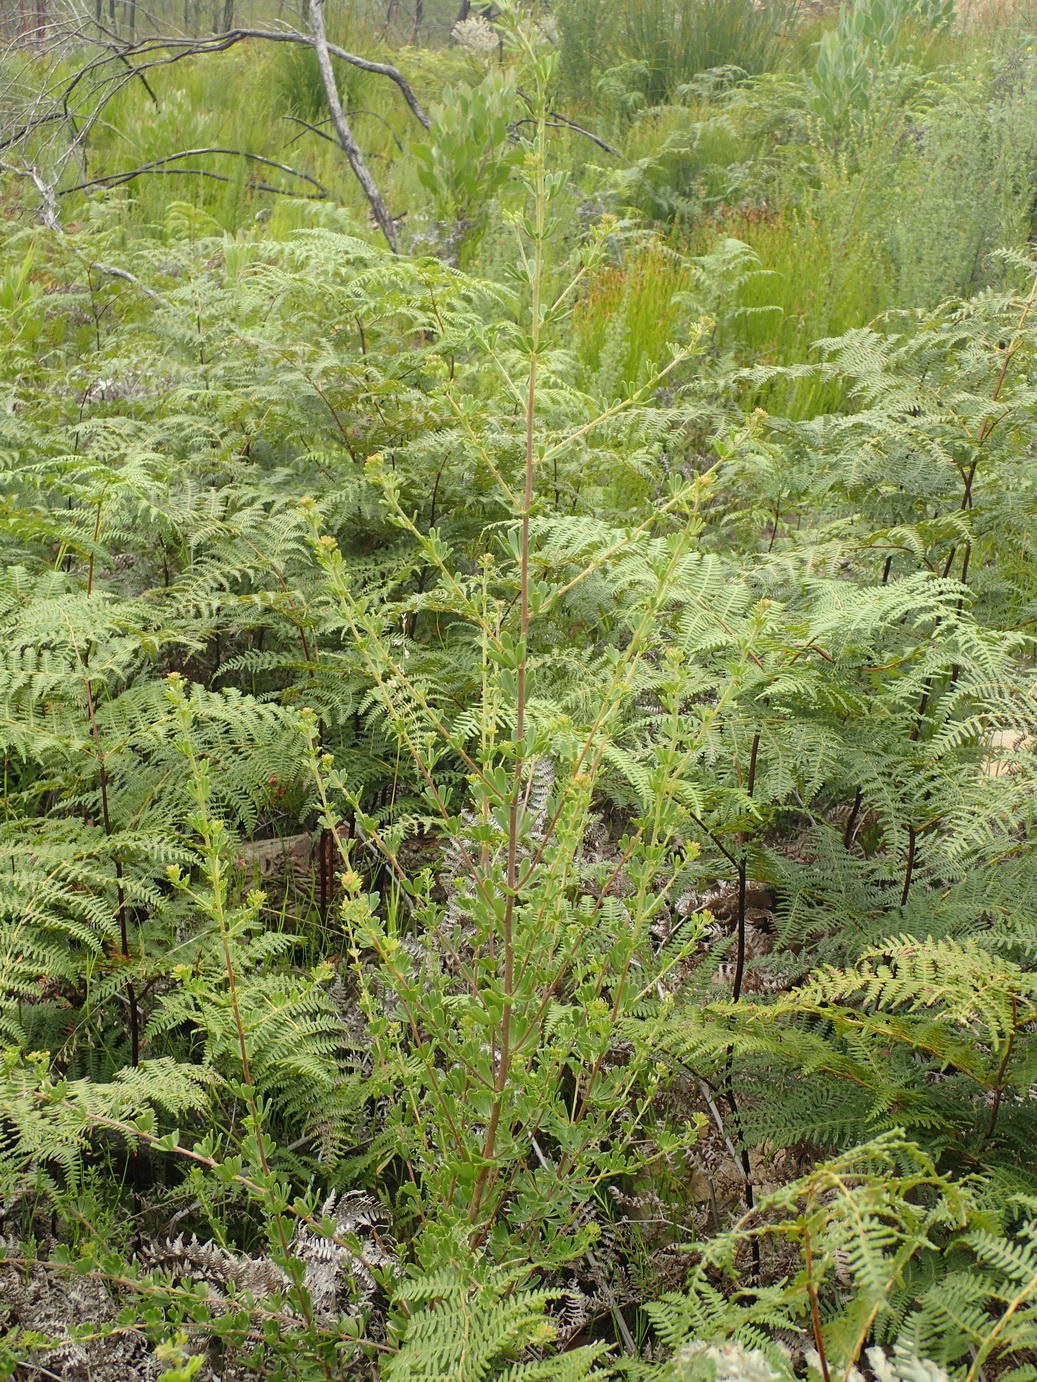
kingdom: Plantae
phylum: Tracheophyta
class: Magnoliopsida
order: Fabales
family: Fabaceae
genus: Indigofera
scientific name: Indigofera flabellata
